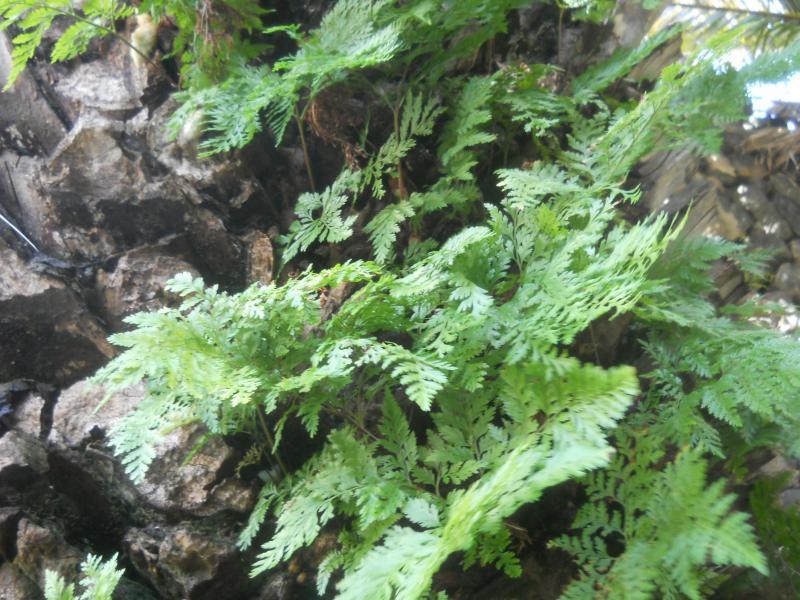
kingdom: Plantae
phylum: Tracheophyta
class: Polypodiopsida
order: Polypodiales
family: Davalliaceae
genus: Davallia
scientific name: Davallia canariensis
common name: Hare's-foot fern
